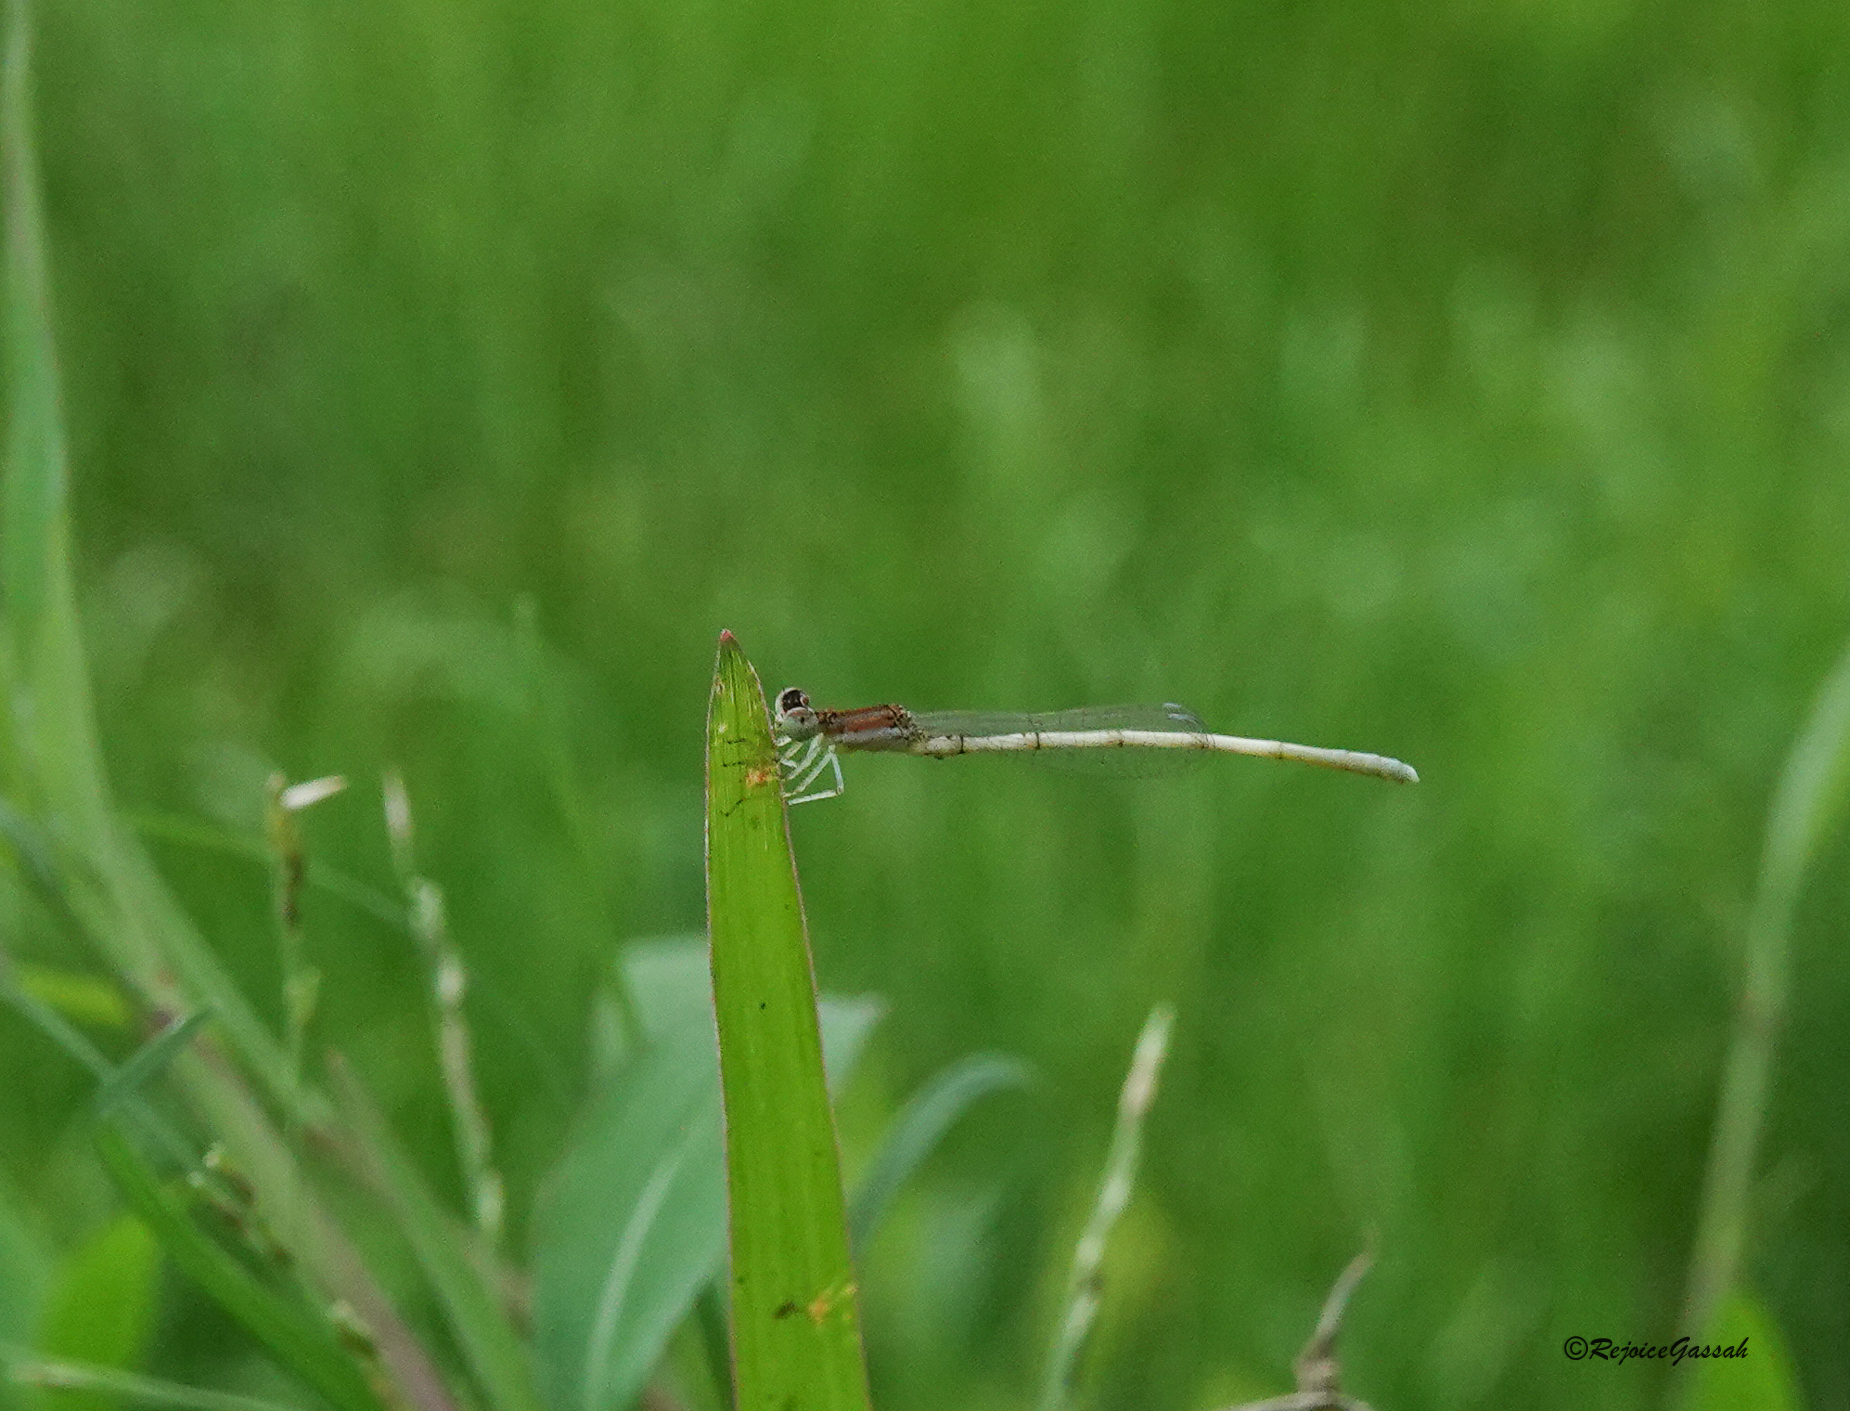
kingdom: Animalia
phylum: Arthropoda
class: Insecta
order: Odonata
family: Coenagrionidae
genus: Agriocnemis
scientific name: Agriocnemis lacteola
